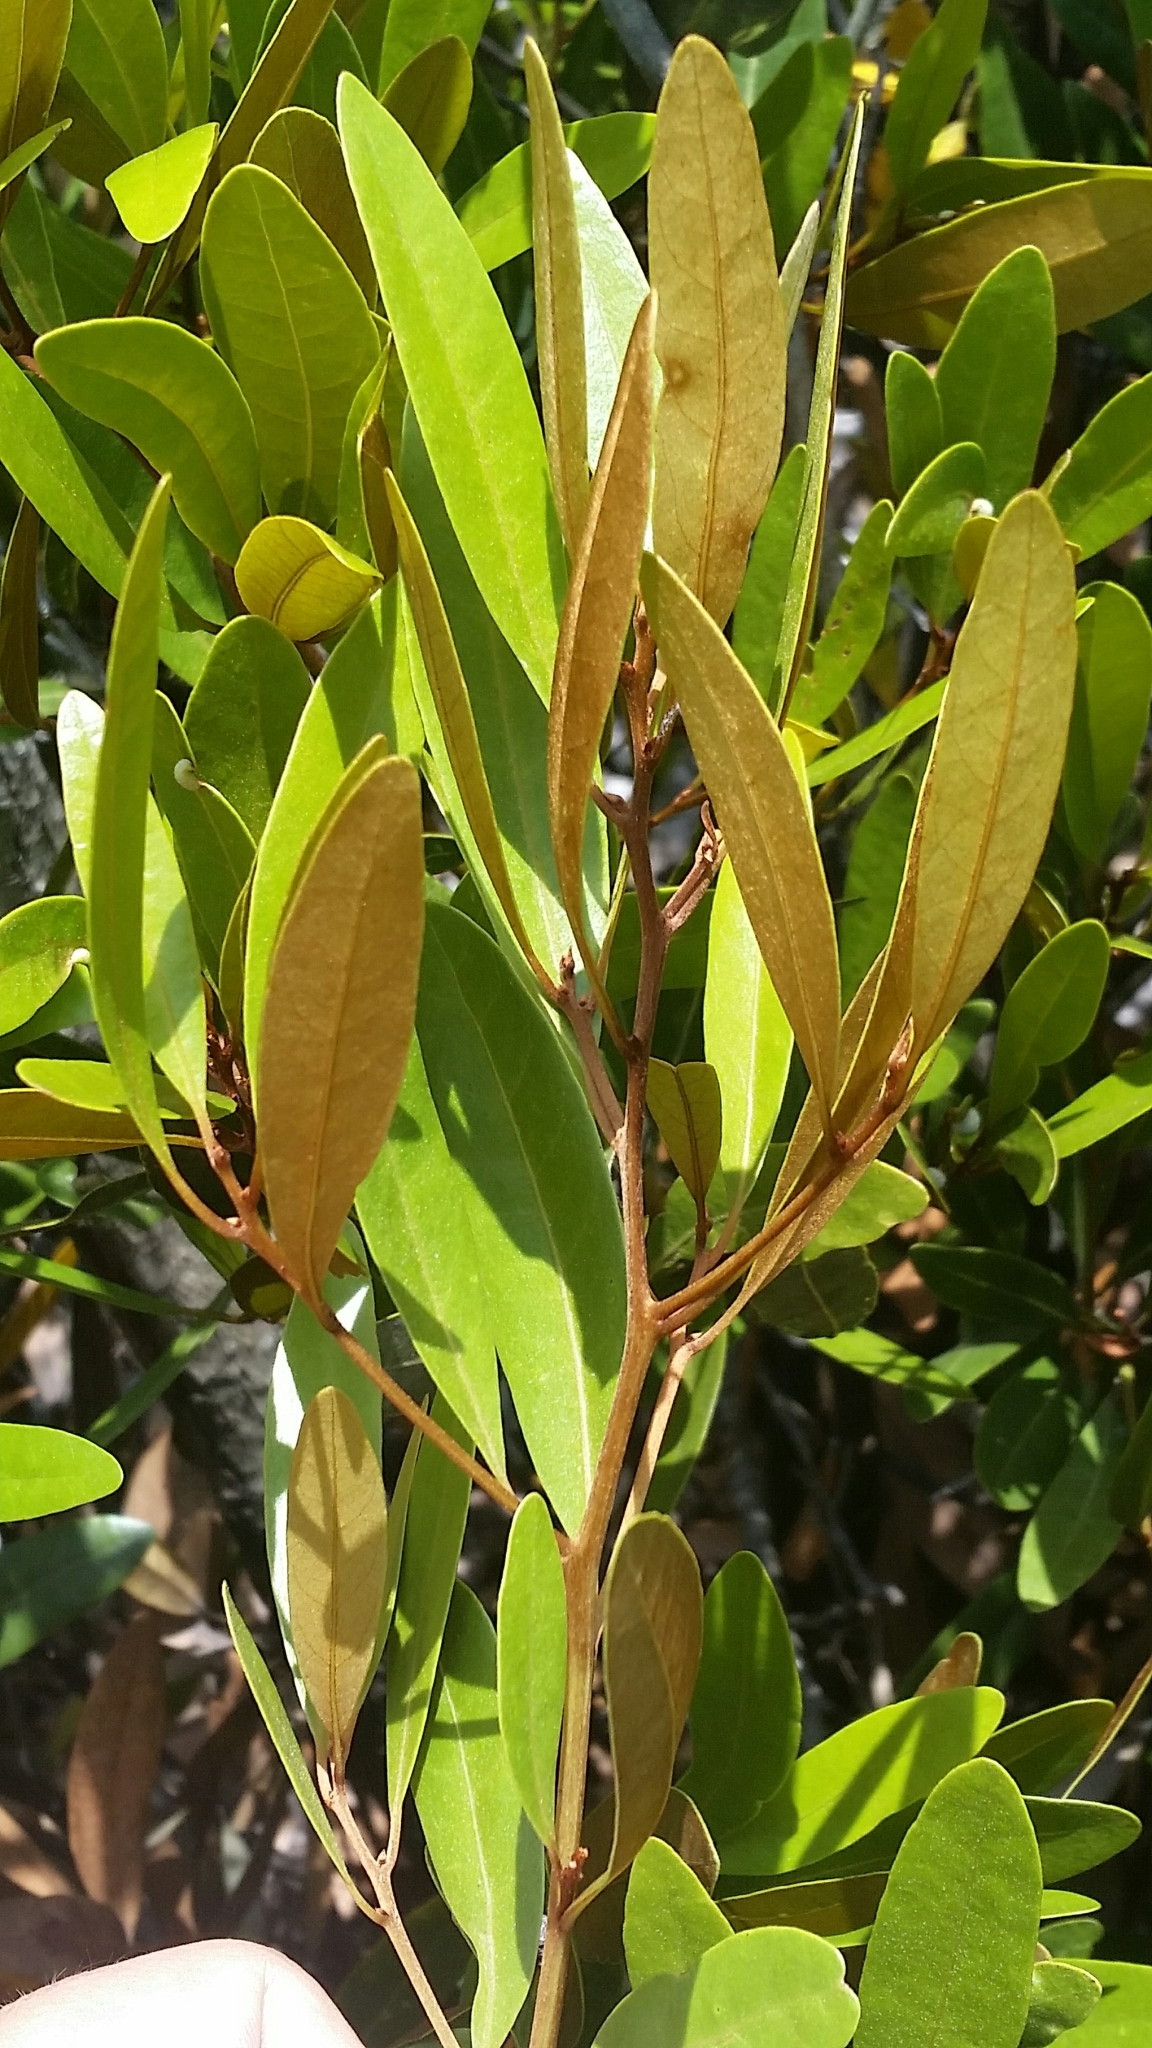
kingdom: Plantae
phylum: Tracheophyta
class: Magnoliopsida
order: Laurales
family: Lauraceae
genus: Persea
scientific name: Persea humilis
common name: Silkbay
